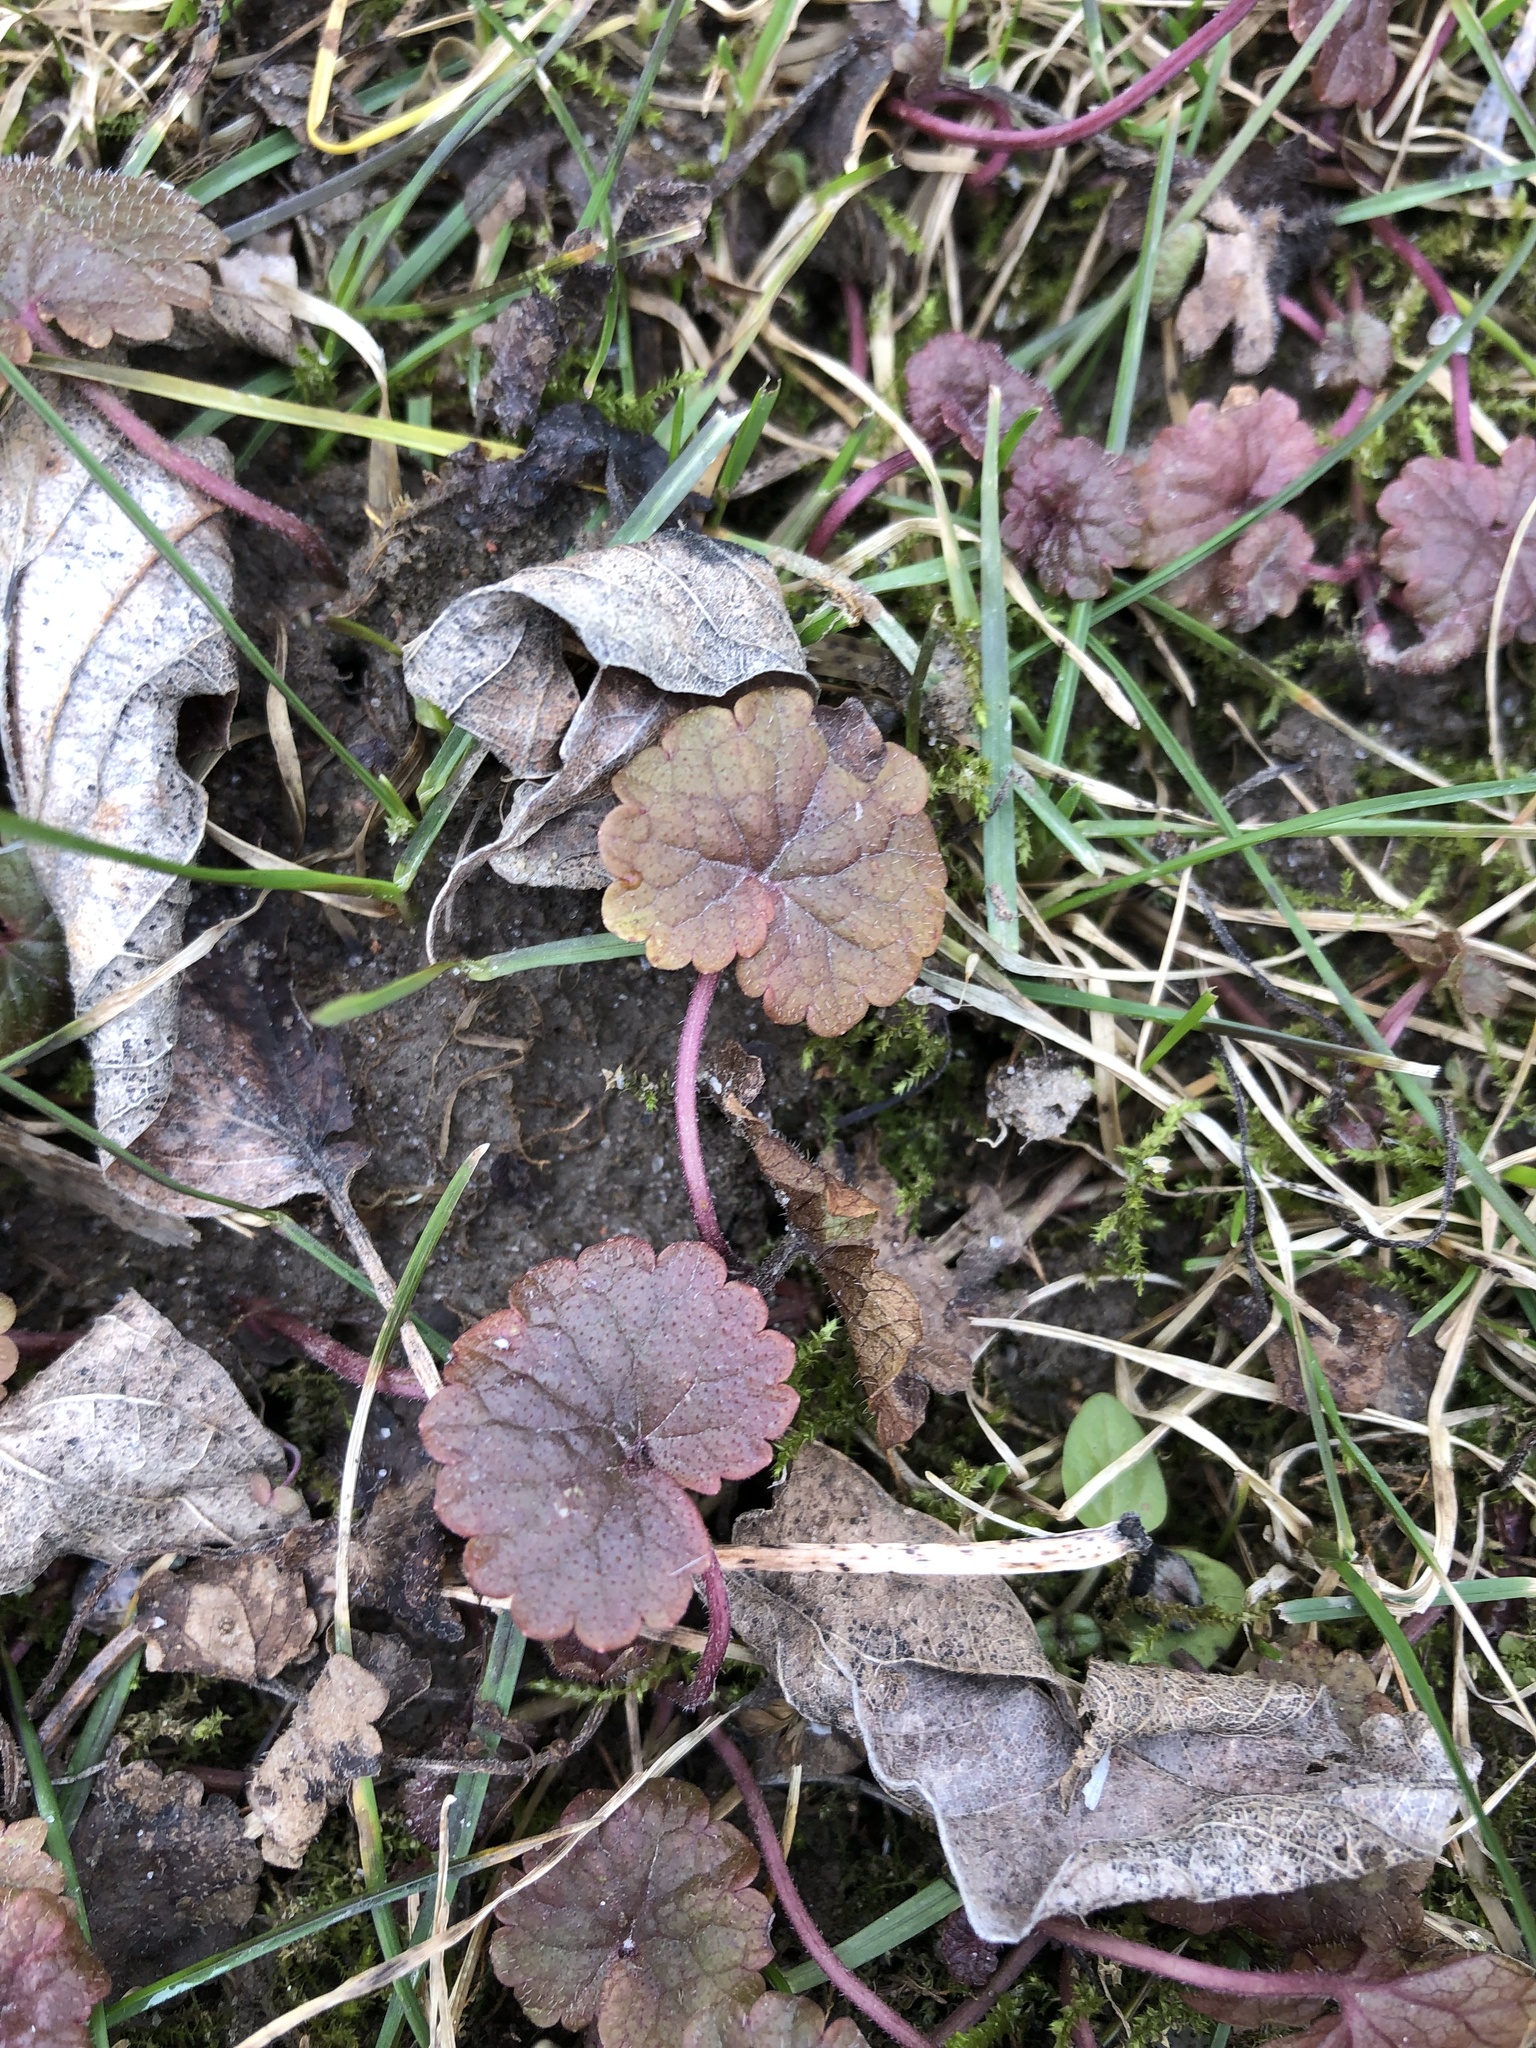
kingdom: Plantae
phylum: Tracheophyta
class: Magnoliopsida
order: Lamiales
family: Lamiaceae
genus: Glechoma
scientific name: Glechoma hederacea
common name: Ground ivy
